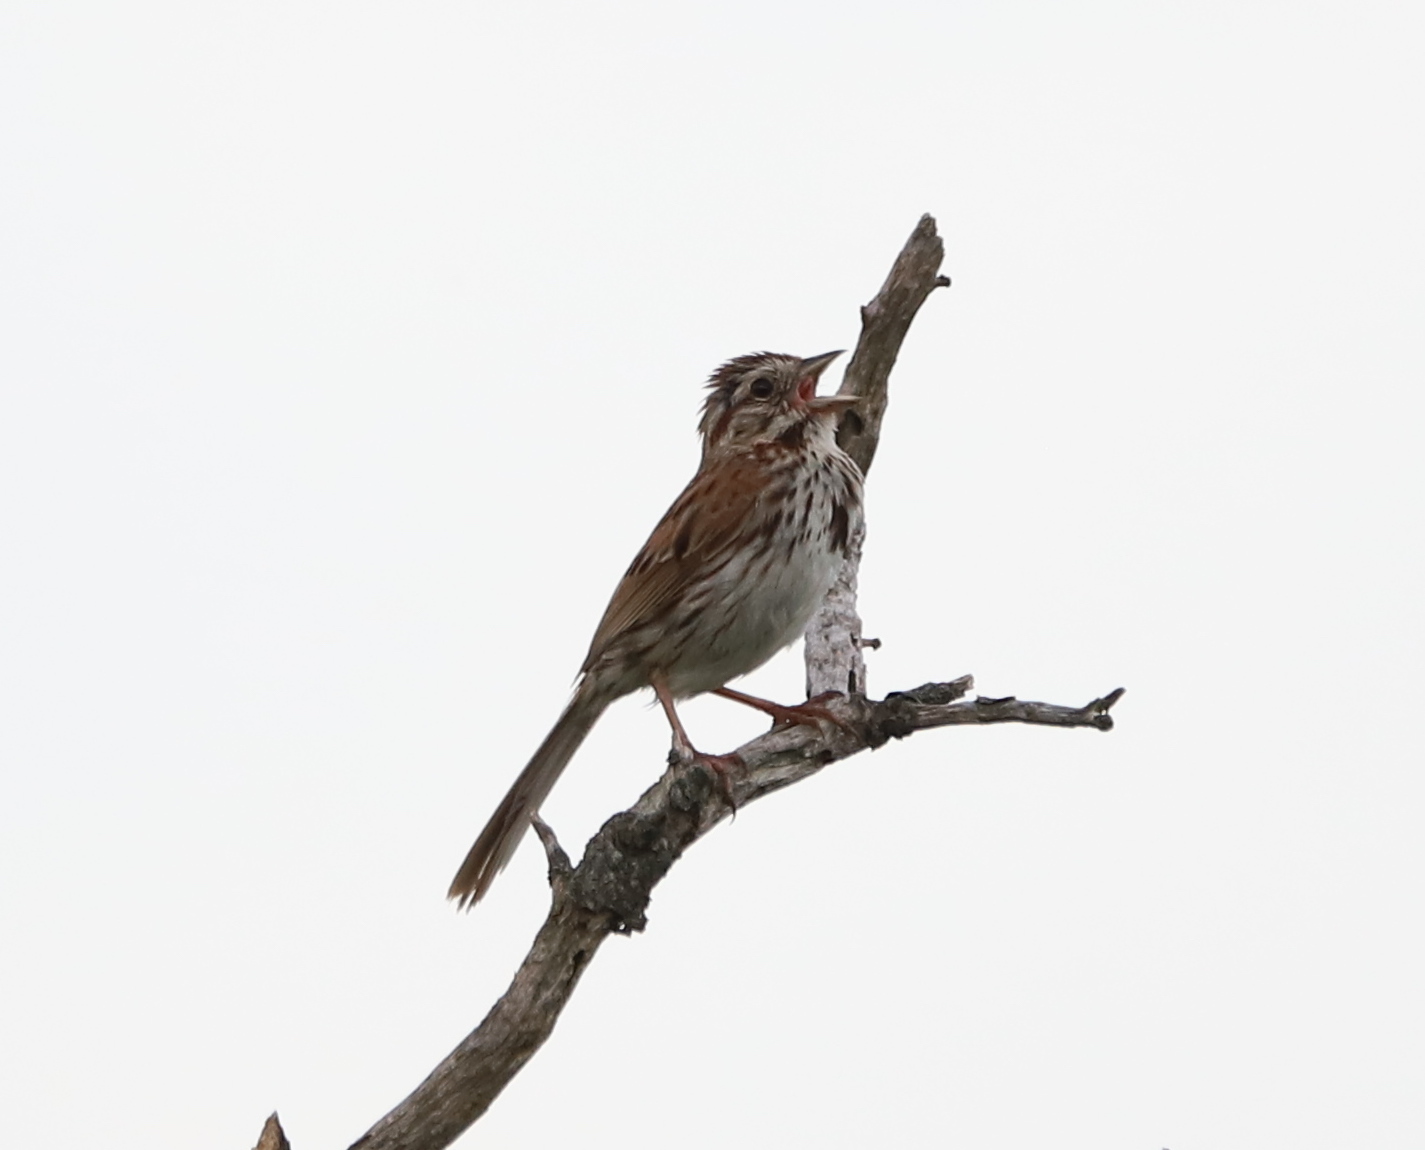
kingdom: Animalia
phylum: Chordata
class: Aves
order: Passeriformes
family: Passerellidae
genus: Melospiza
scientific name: Melospiza melodia
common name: Song sparrow
